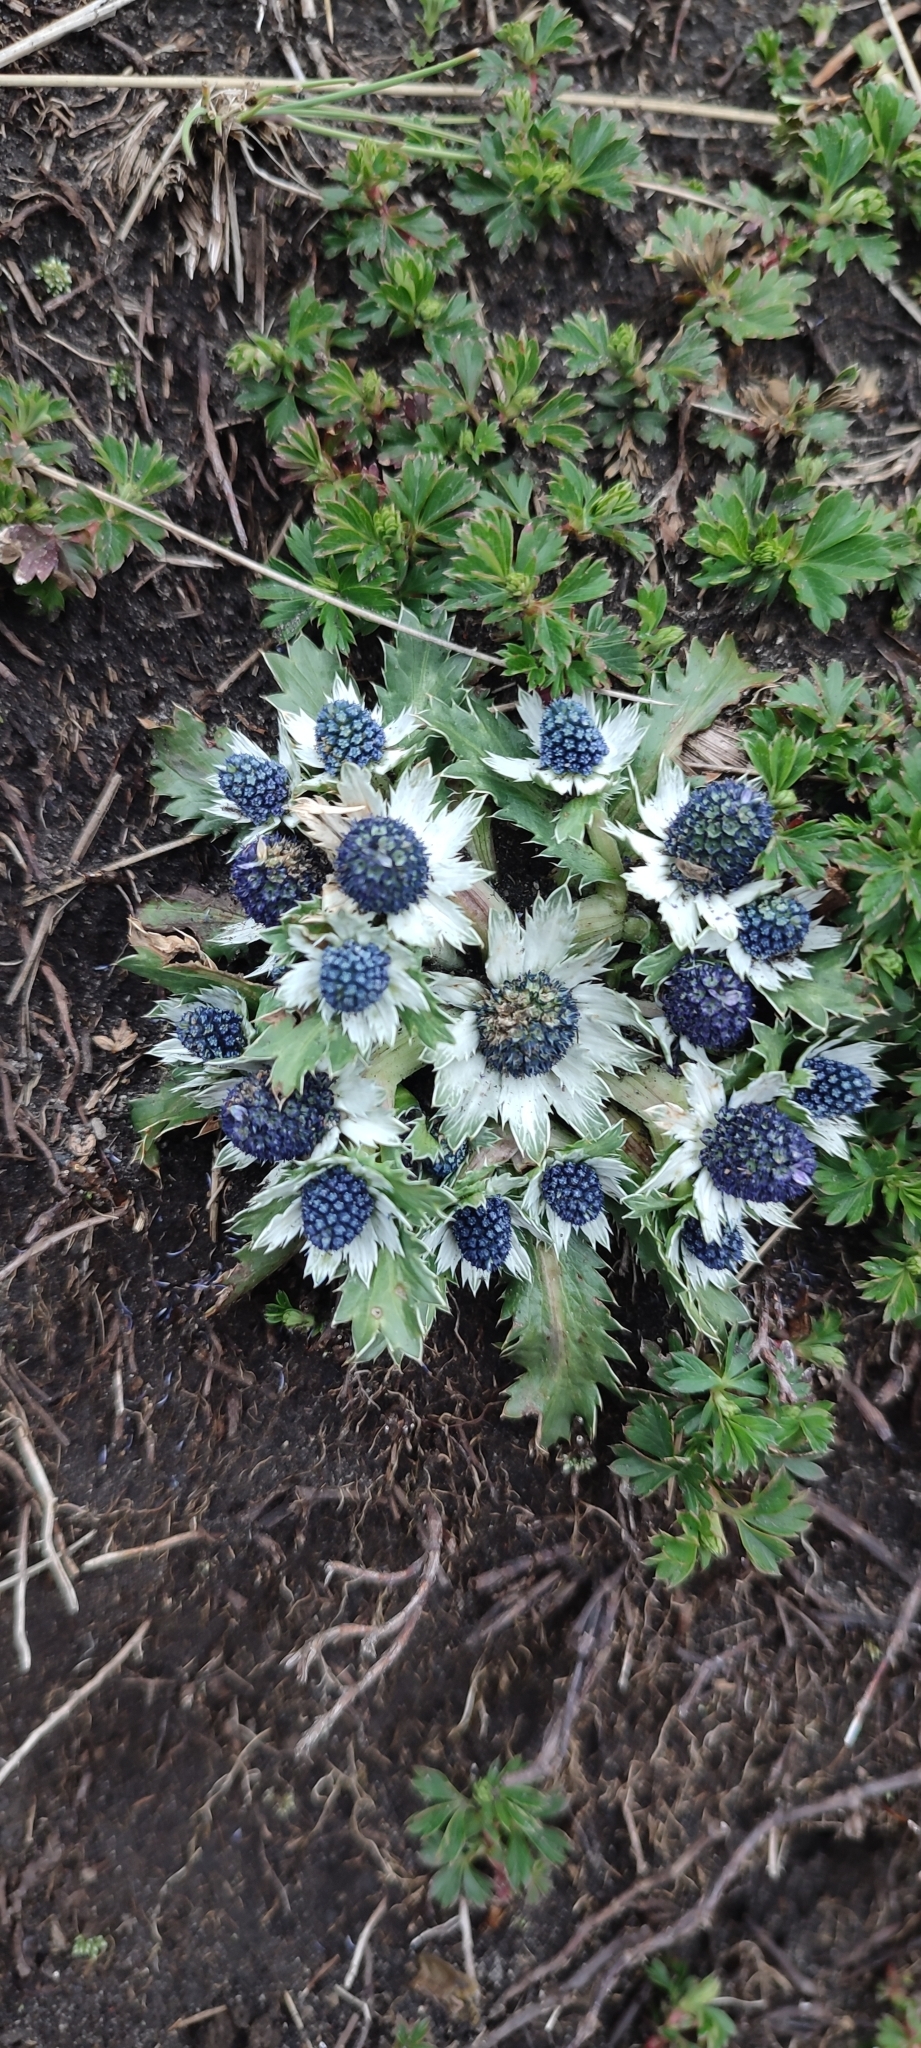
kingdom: Plantae
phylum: Tracheophyta
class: Magnoliopsida
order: Apiales
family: Apiaceae
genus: Eryngium
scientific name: Eryngium carlinae
